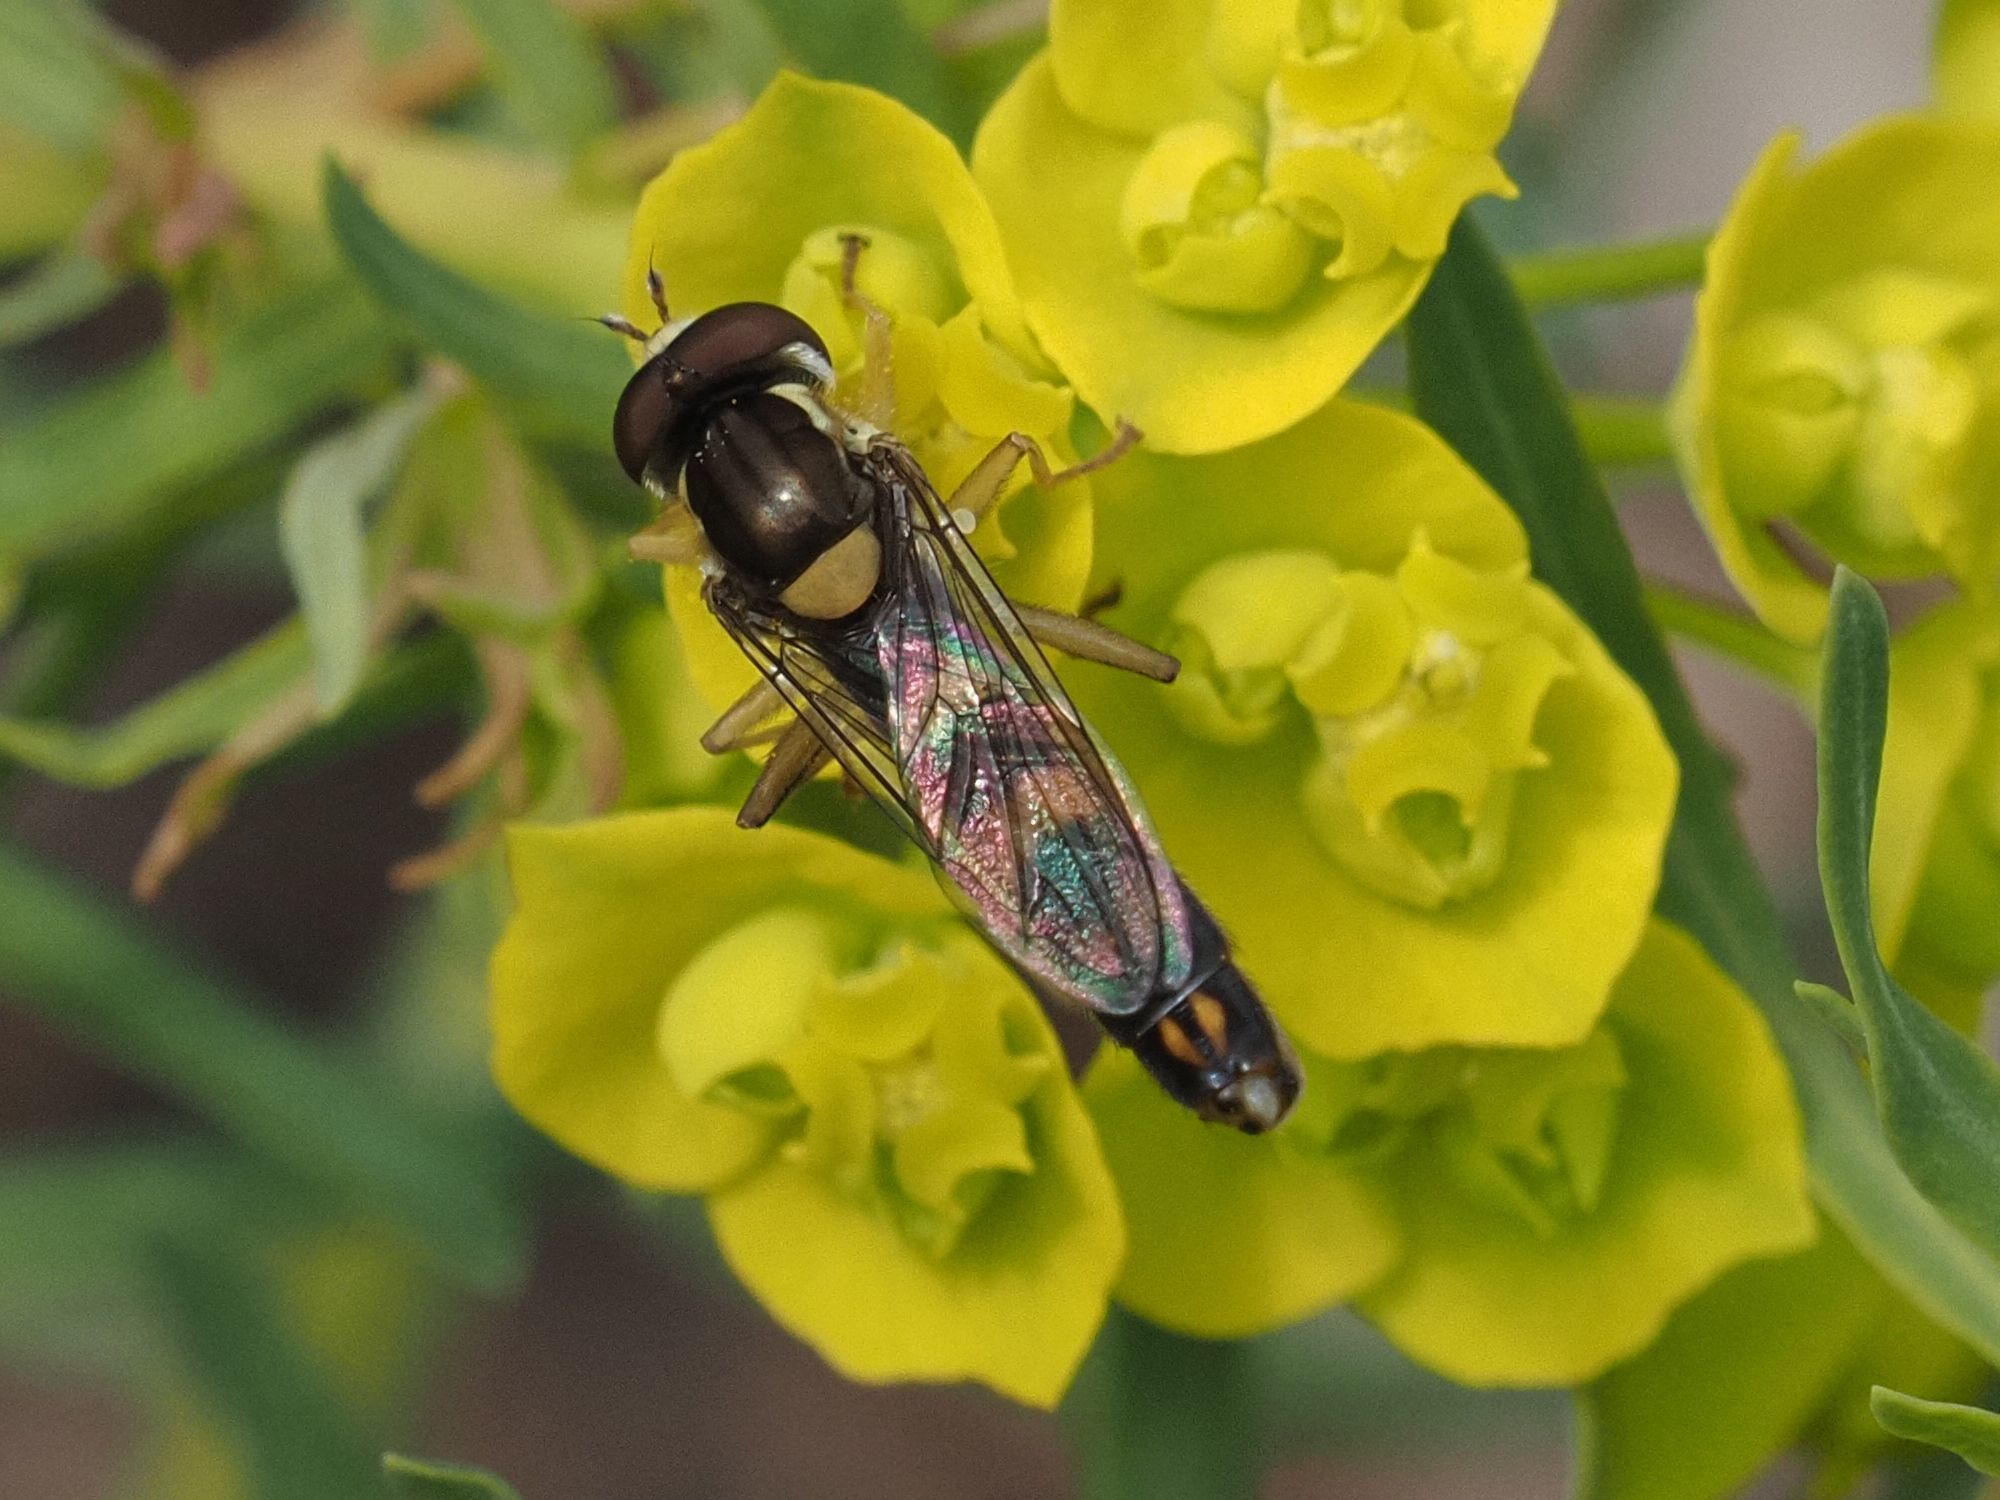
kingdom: Animalia
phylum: Arthropoda
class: Insecta
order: Diptera
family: Syrphidae
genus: Sphaerophoria
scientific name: Sphaerophoria scripta
